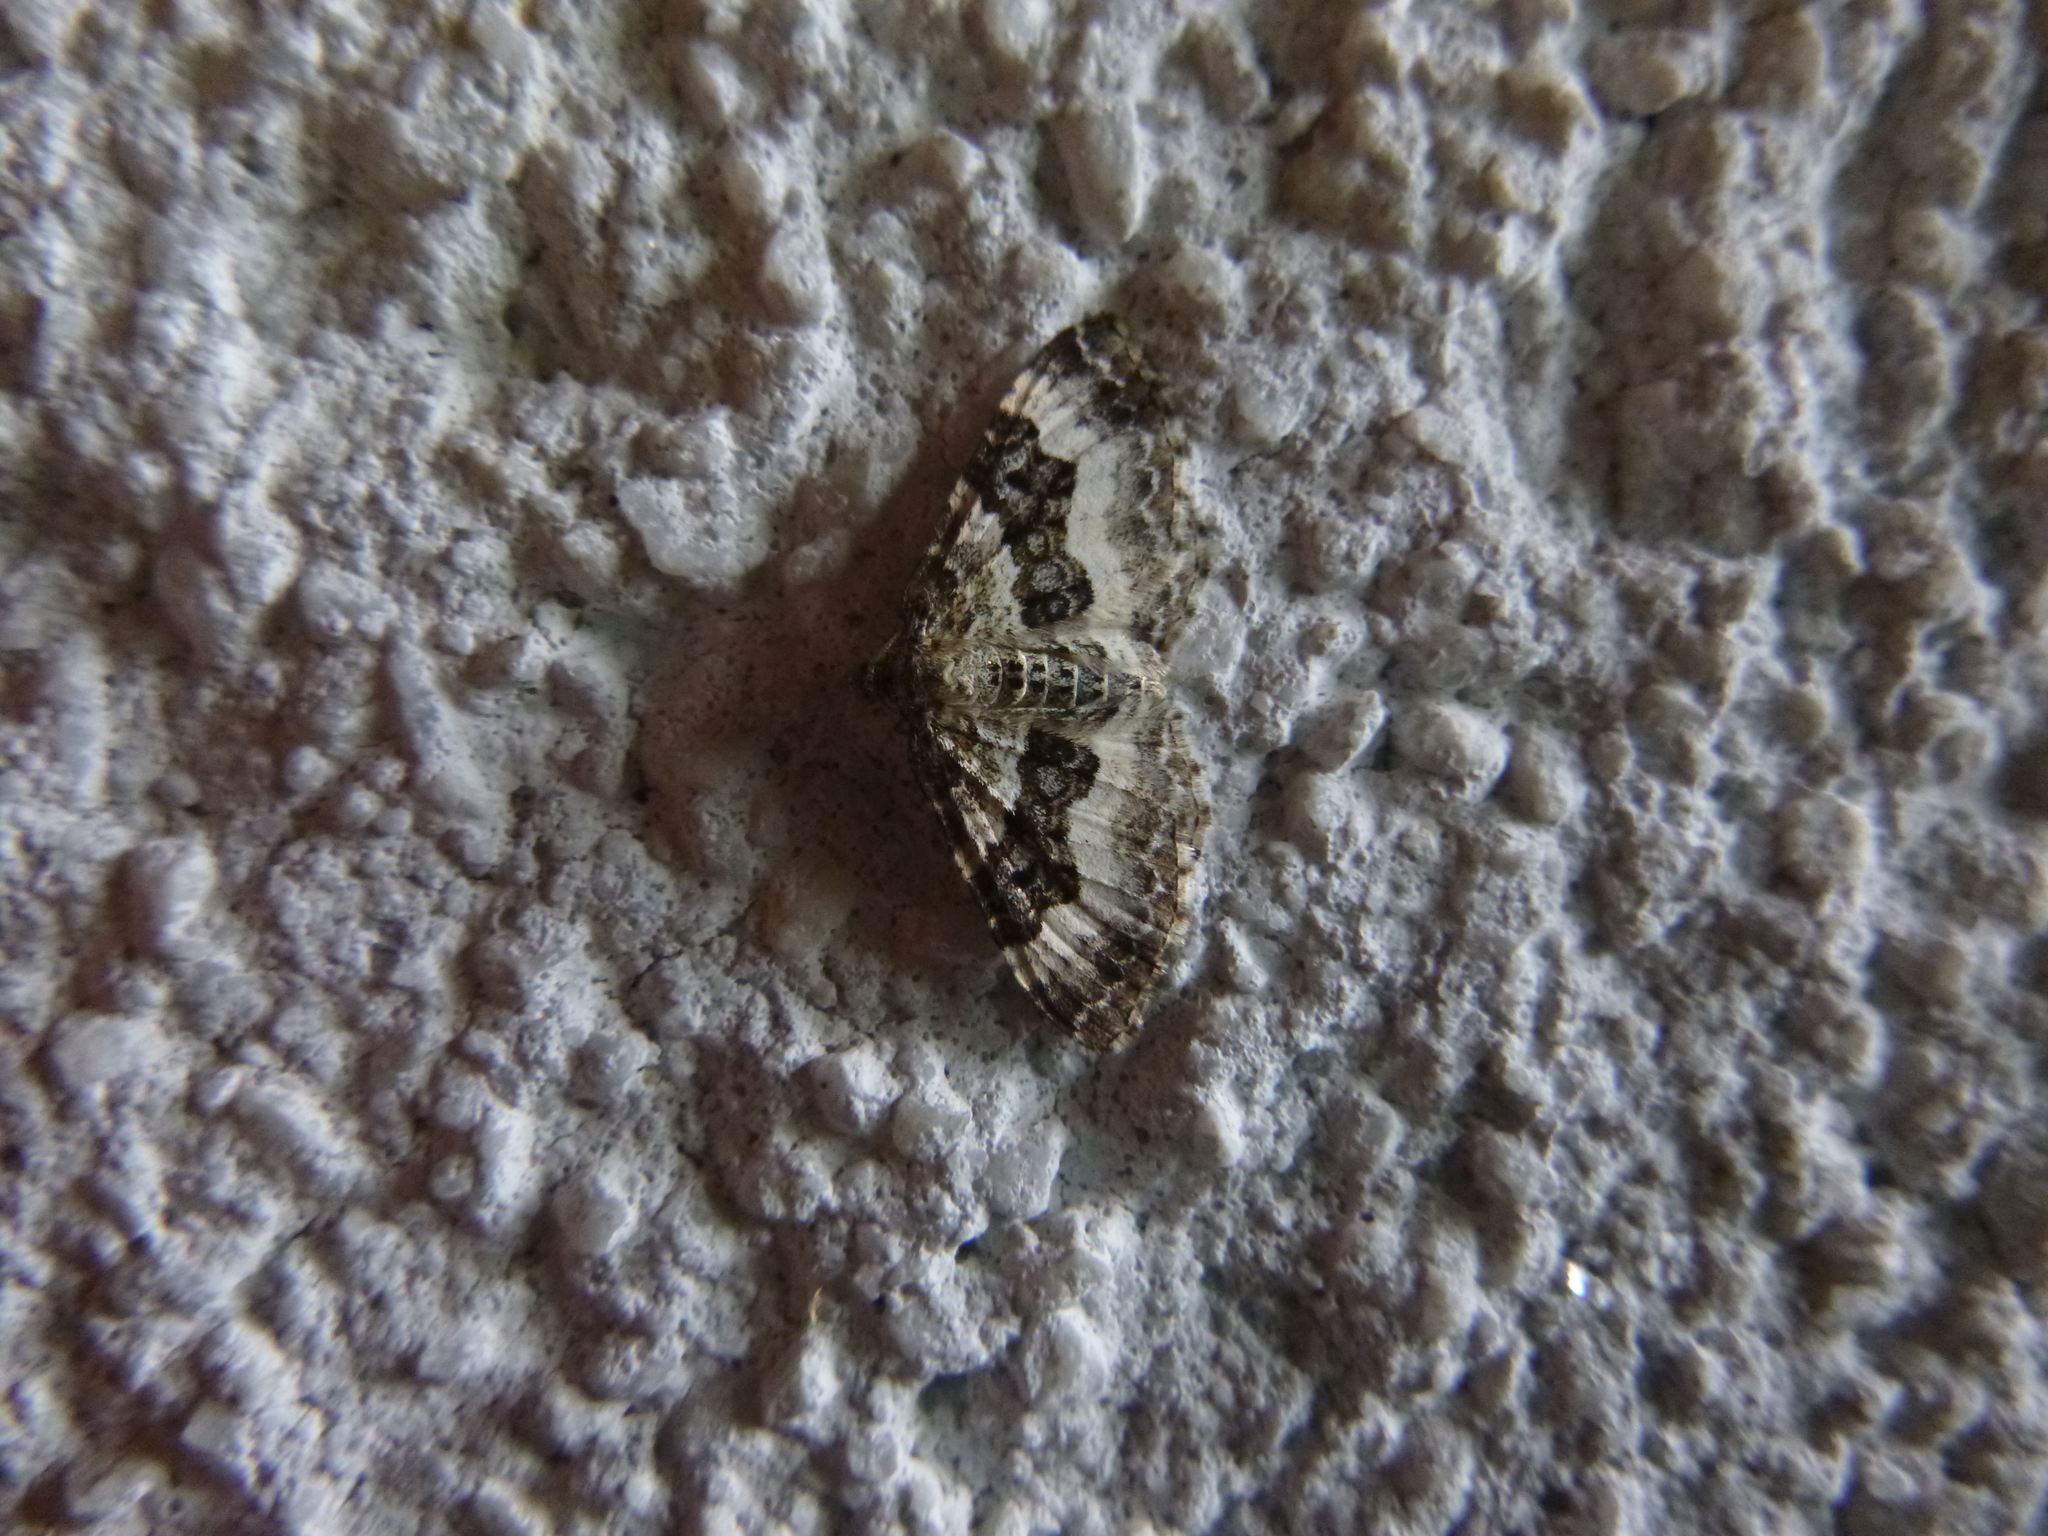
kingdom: Animalia
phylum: Arthropoda
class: Insecta
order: Lepidoptera
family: Geometridae
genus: Epirrhoe
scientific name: Epirrhoe alternata
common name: Common carpet
